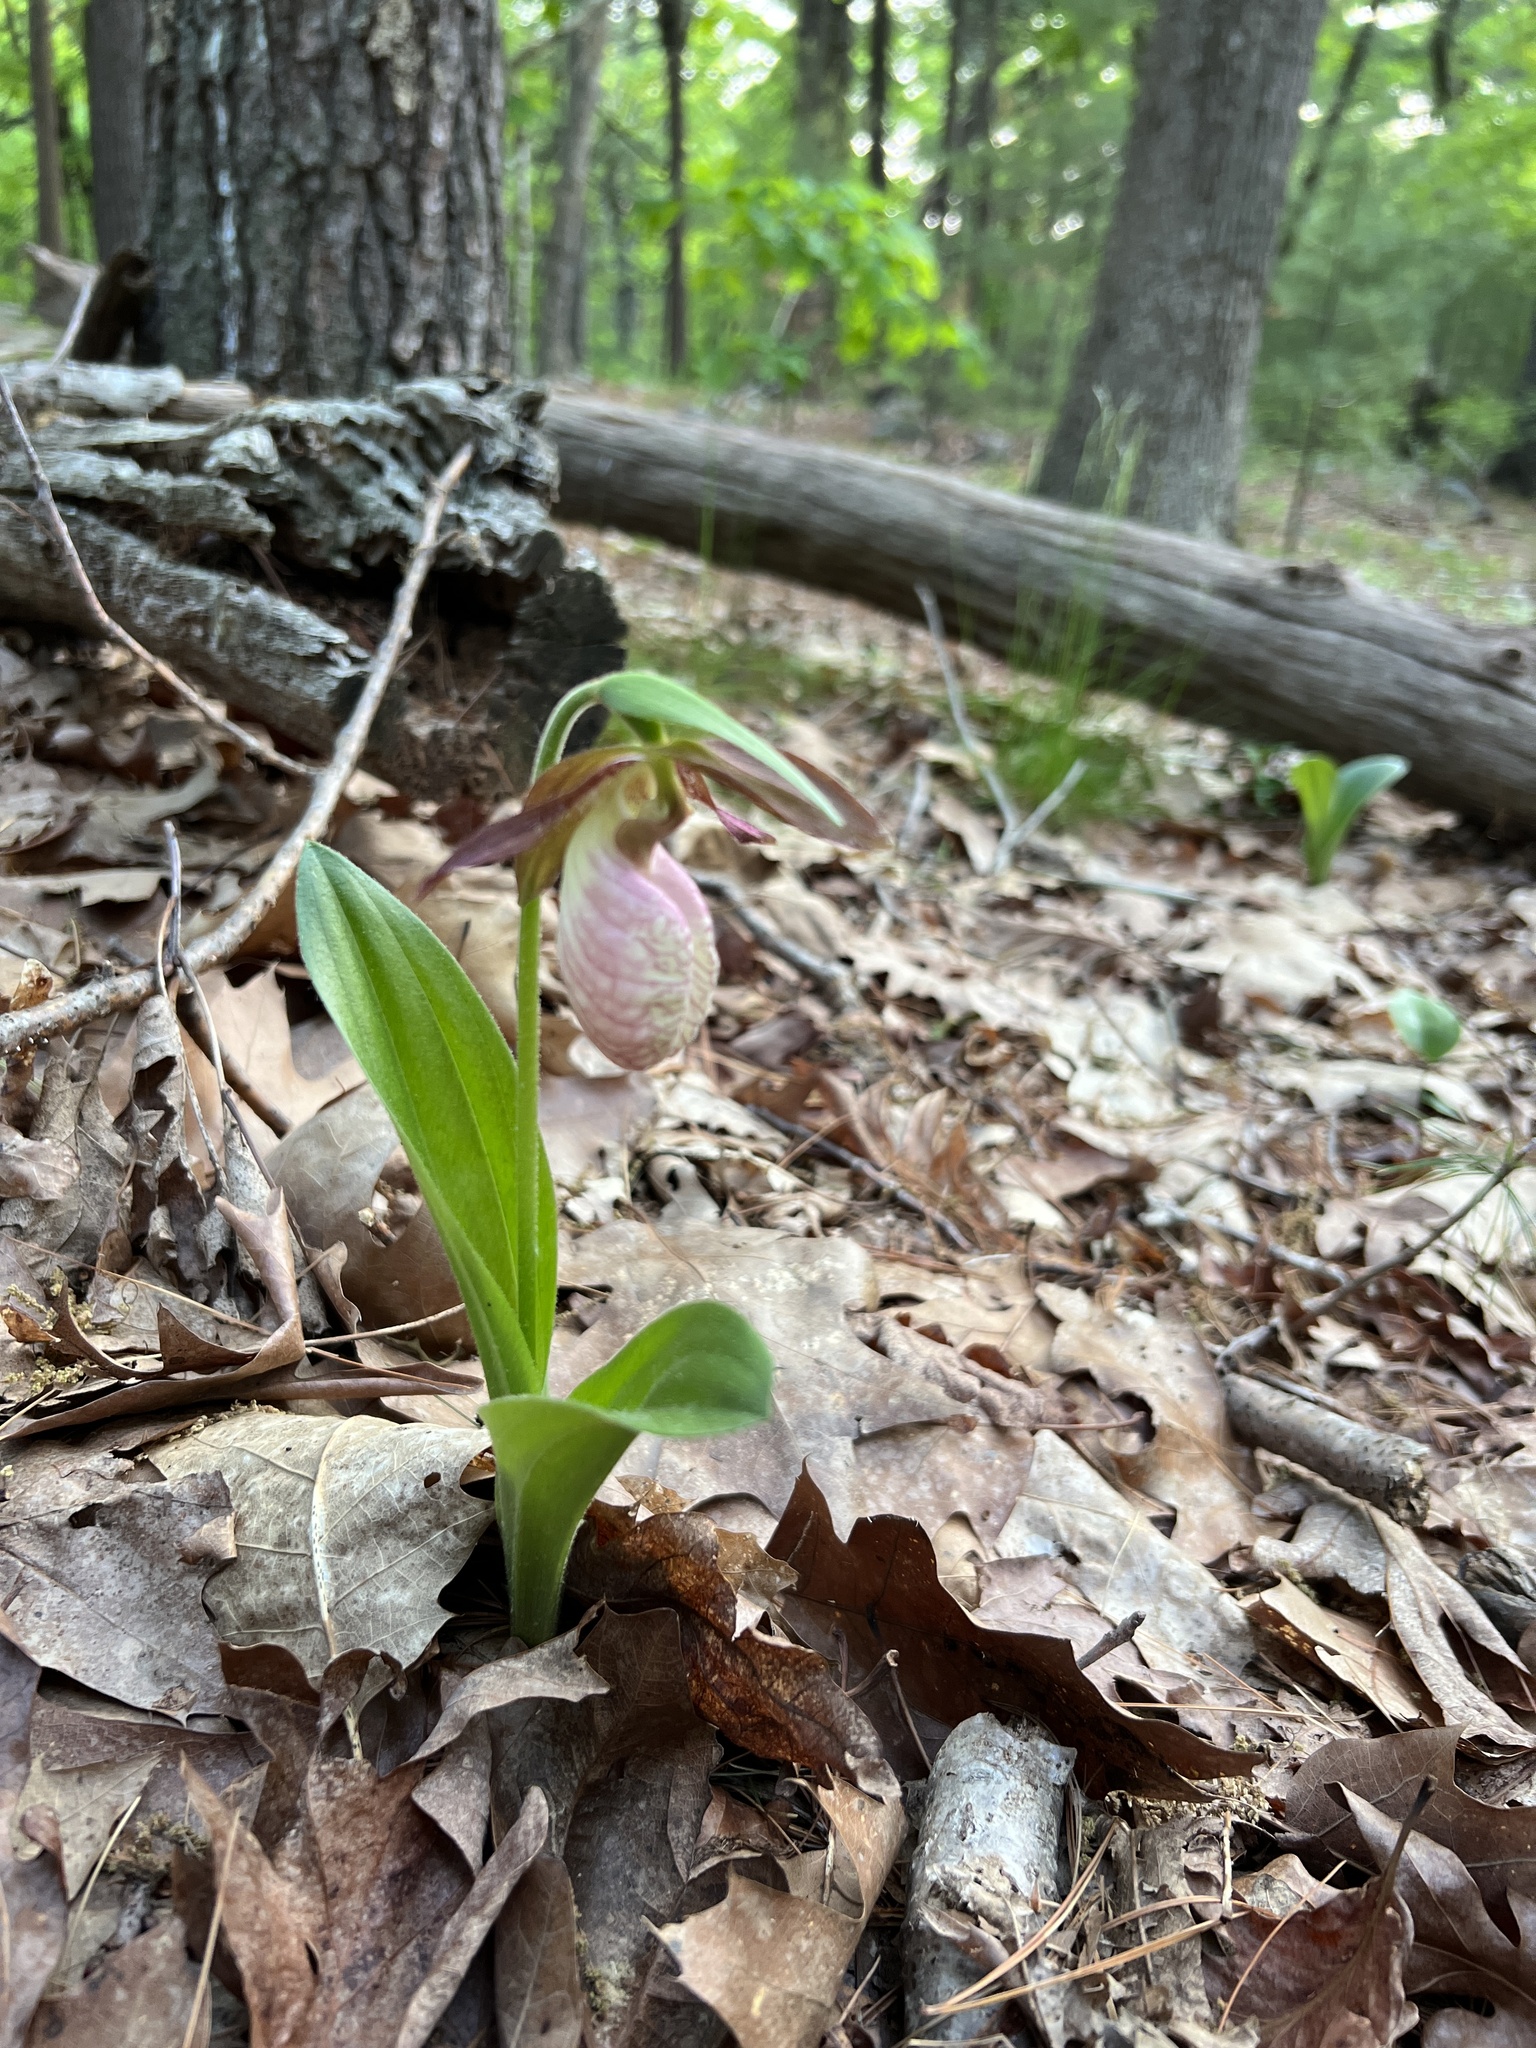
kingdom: Plantae
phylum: Tracheophyta
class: Liliopsida
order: Asparagales
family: Orchidaceae
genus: Cypripedium
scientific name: Cypripedium acaule
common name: Pink lady's-slipper
